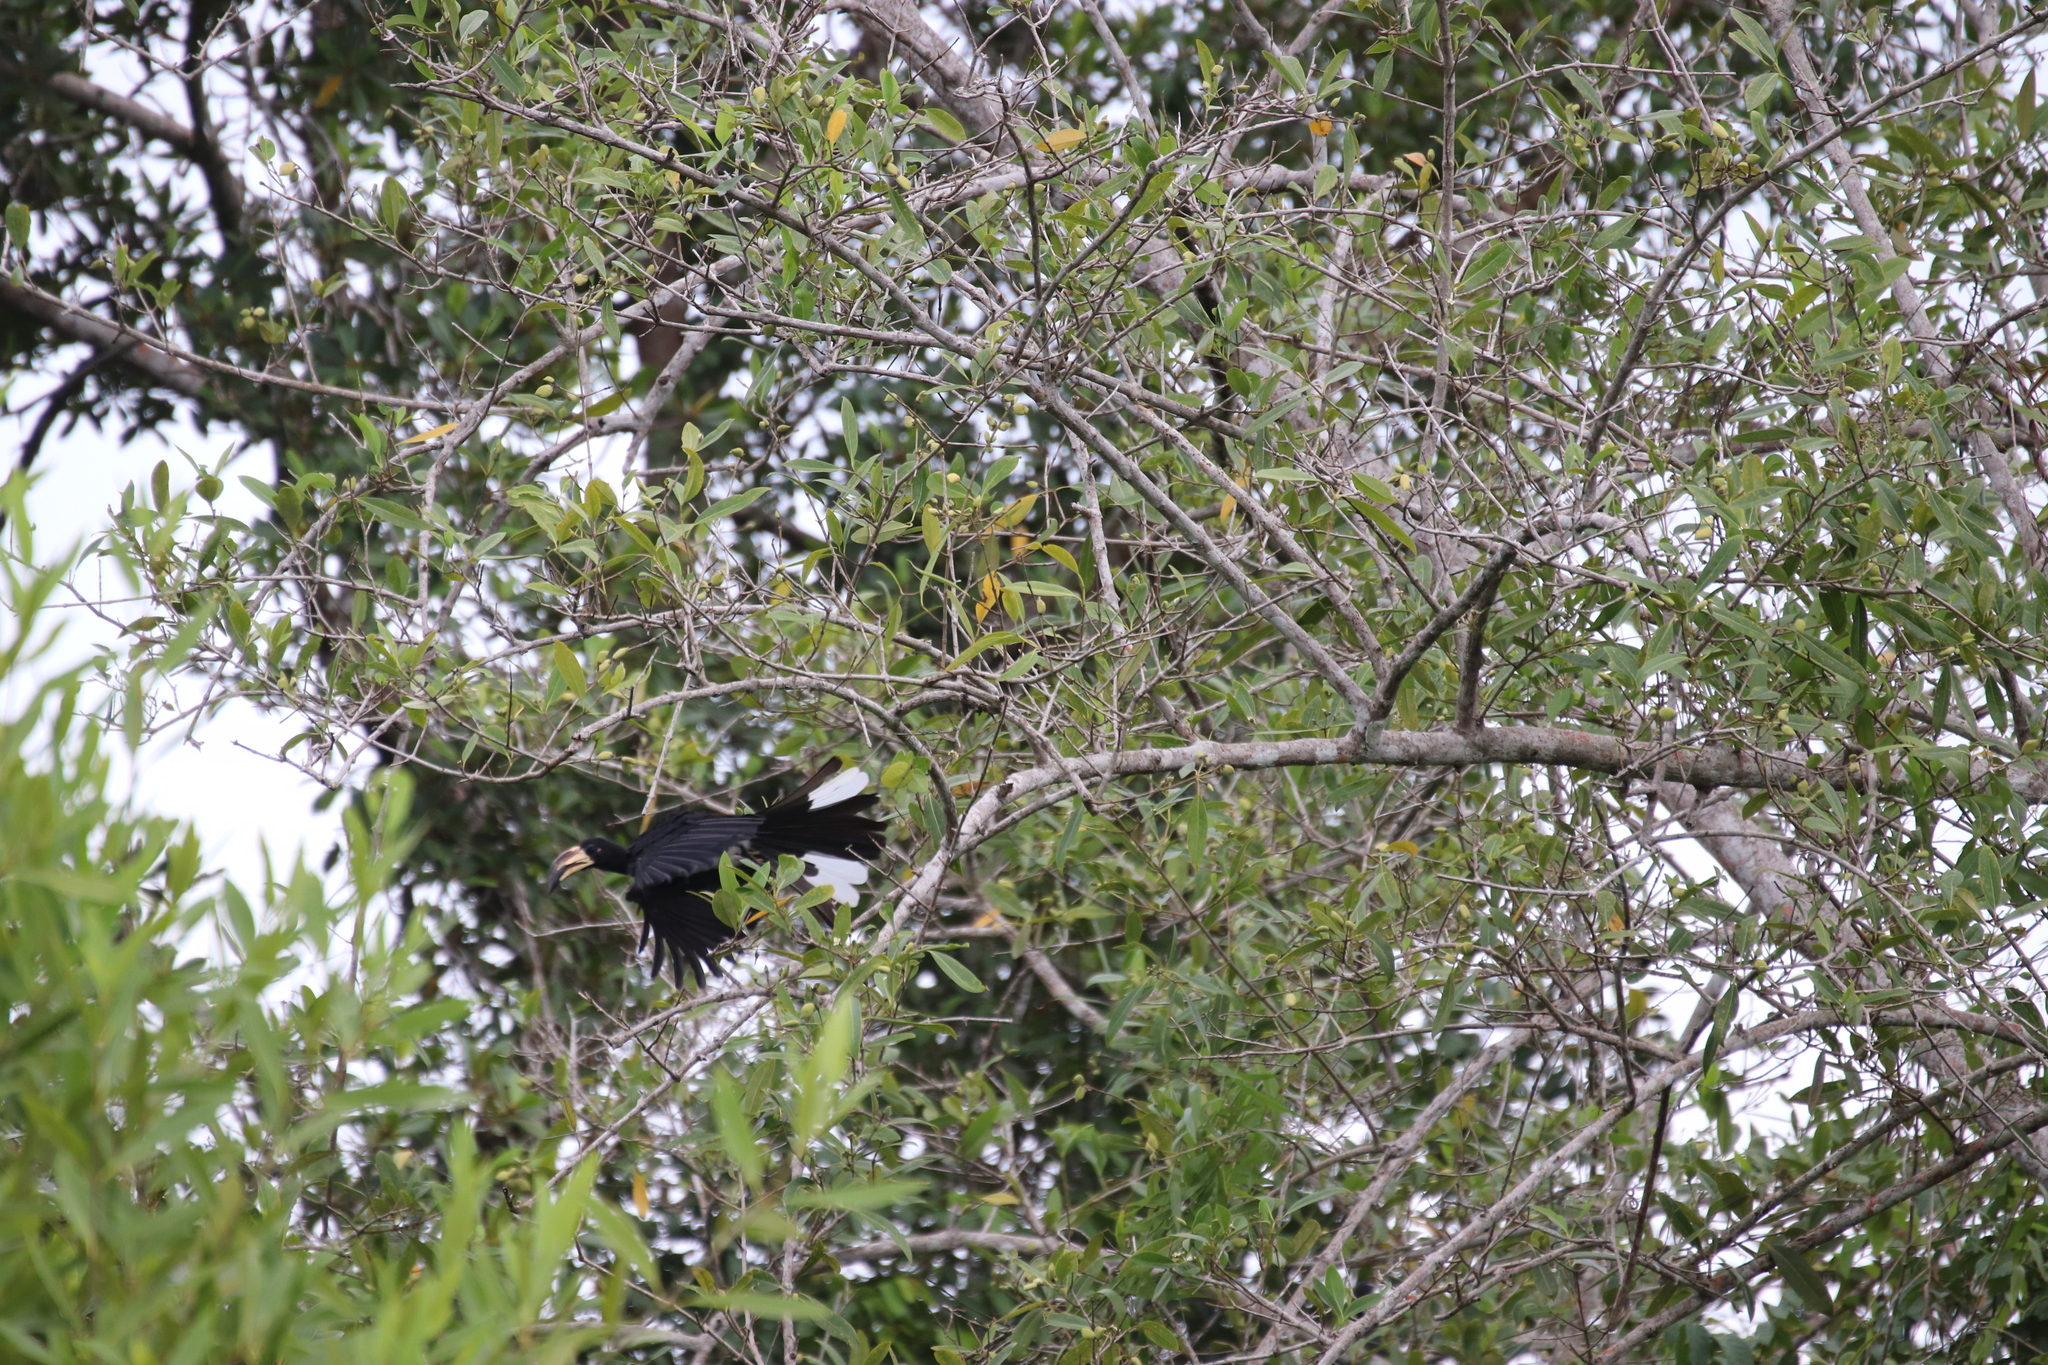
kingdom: Animalia
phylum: Chordata
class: Aves
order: Bucerotiformes
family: Bucerotidae
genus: Lophoceros
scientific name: Lophoceros fasciatus
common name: African pied hornbill
